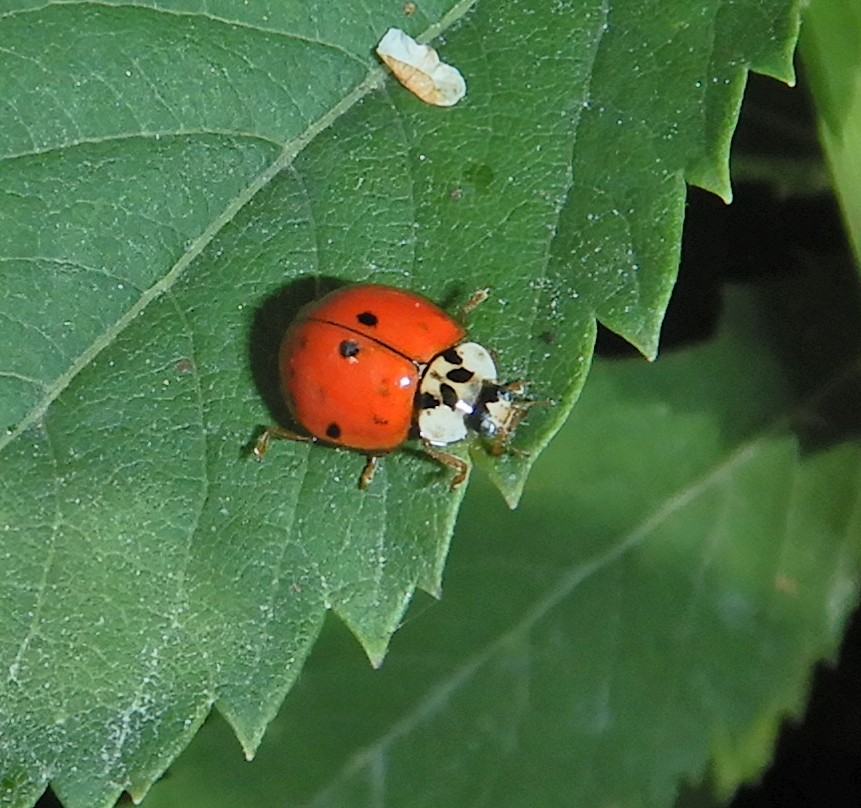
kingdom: Animalia
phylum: Arthropoda
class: Insecta
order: Coleoptera
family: Coccinellidae
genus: Harmonia
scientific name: Harmonia axyridis
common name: Harlequin ladybird
